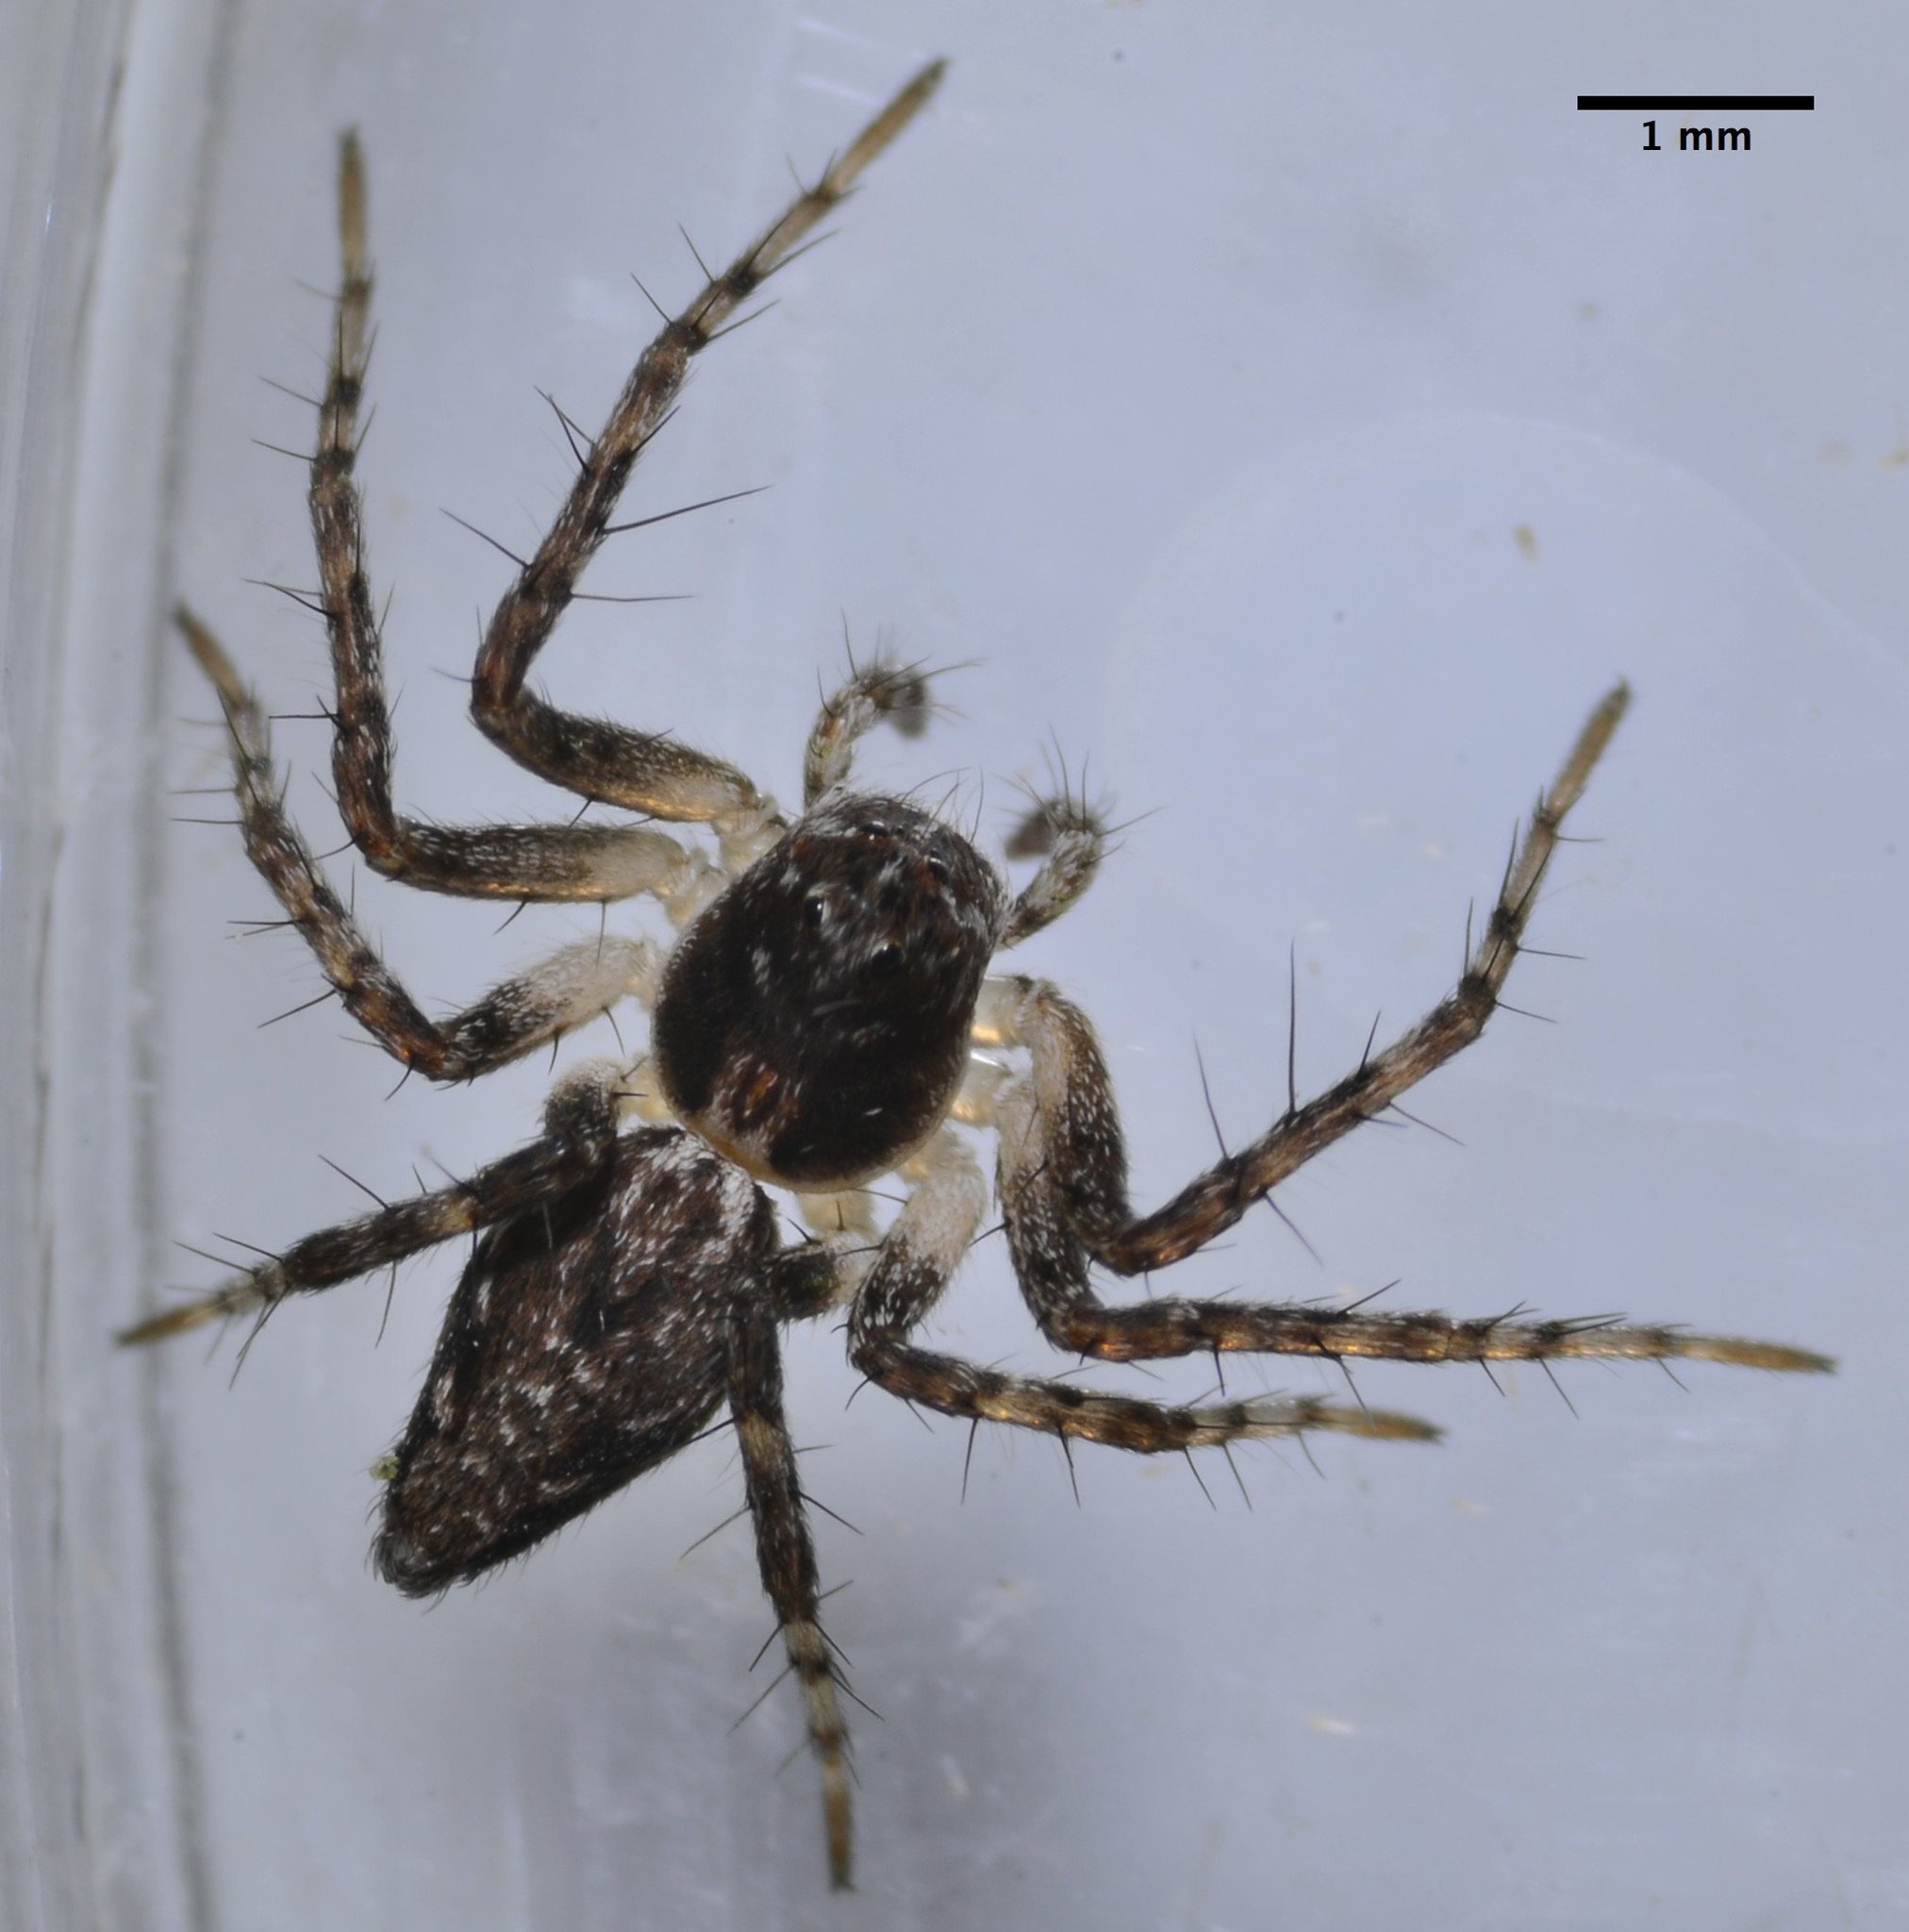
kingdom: Animalia
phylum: Arthropoda
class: Arachnida
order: Araneae
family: Oxyopidae
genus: Oxyopes
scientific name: Oxyopes scalaris
